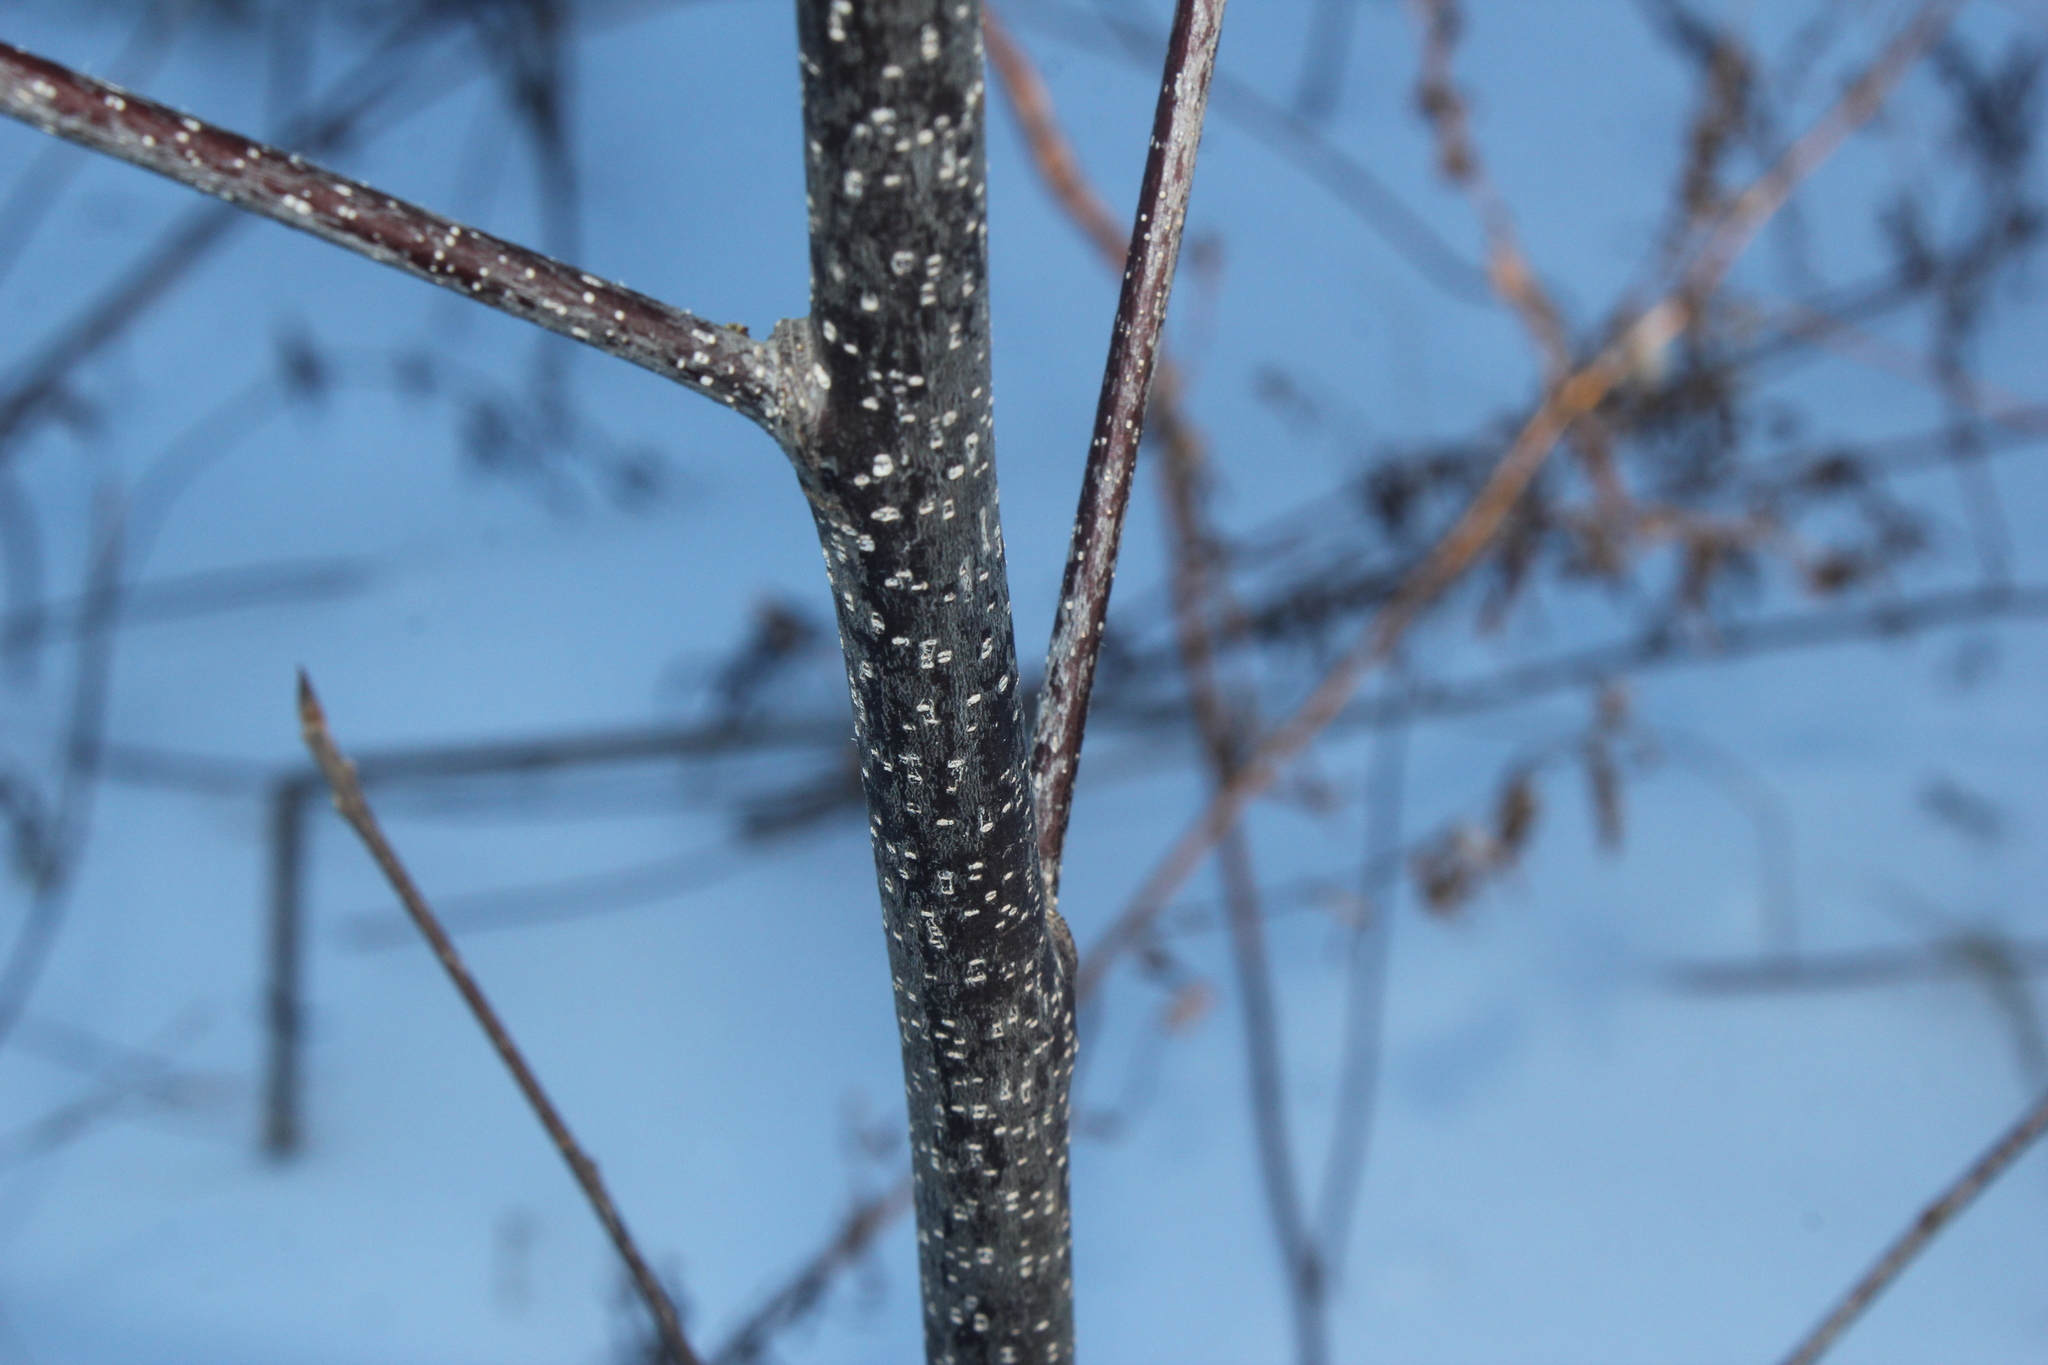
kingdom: Plantae
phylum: Tracheophyta
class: Magnoliopsida
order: Rosales
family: Rhamnaceae
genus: Frangula
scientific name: Frangula alnus
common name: Alder buckthorn
